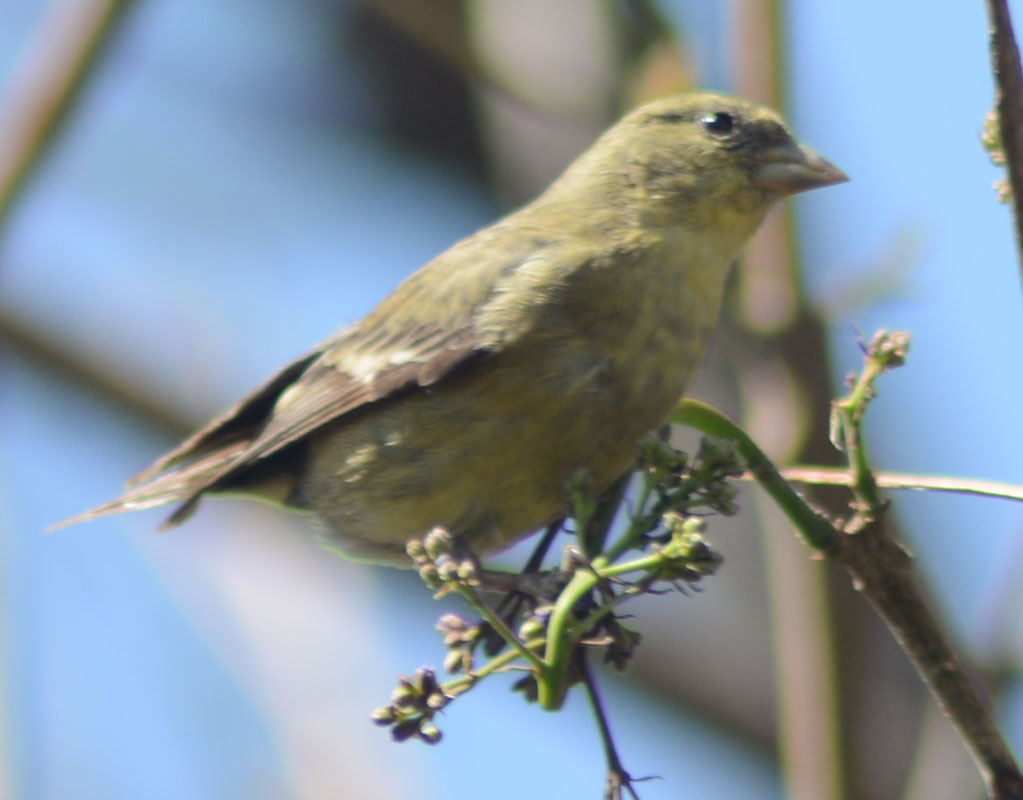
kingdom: Animalia
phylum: Chordata
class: Aves
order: Passeriformes
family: Fringillidae
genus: Spinus
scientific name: Spinus psaltria
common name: Lesser goldfinch
